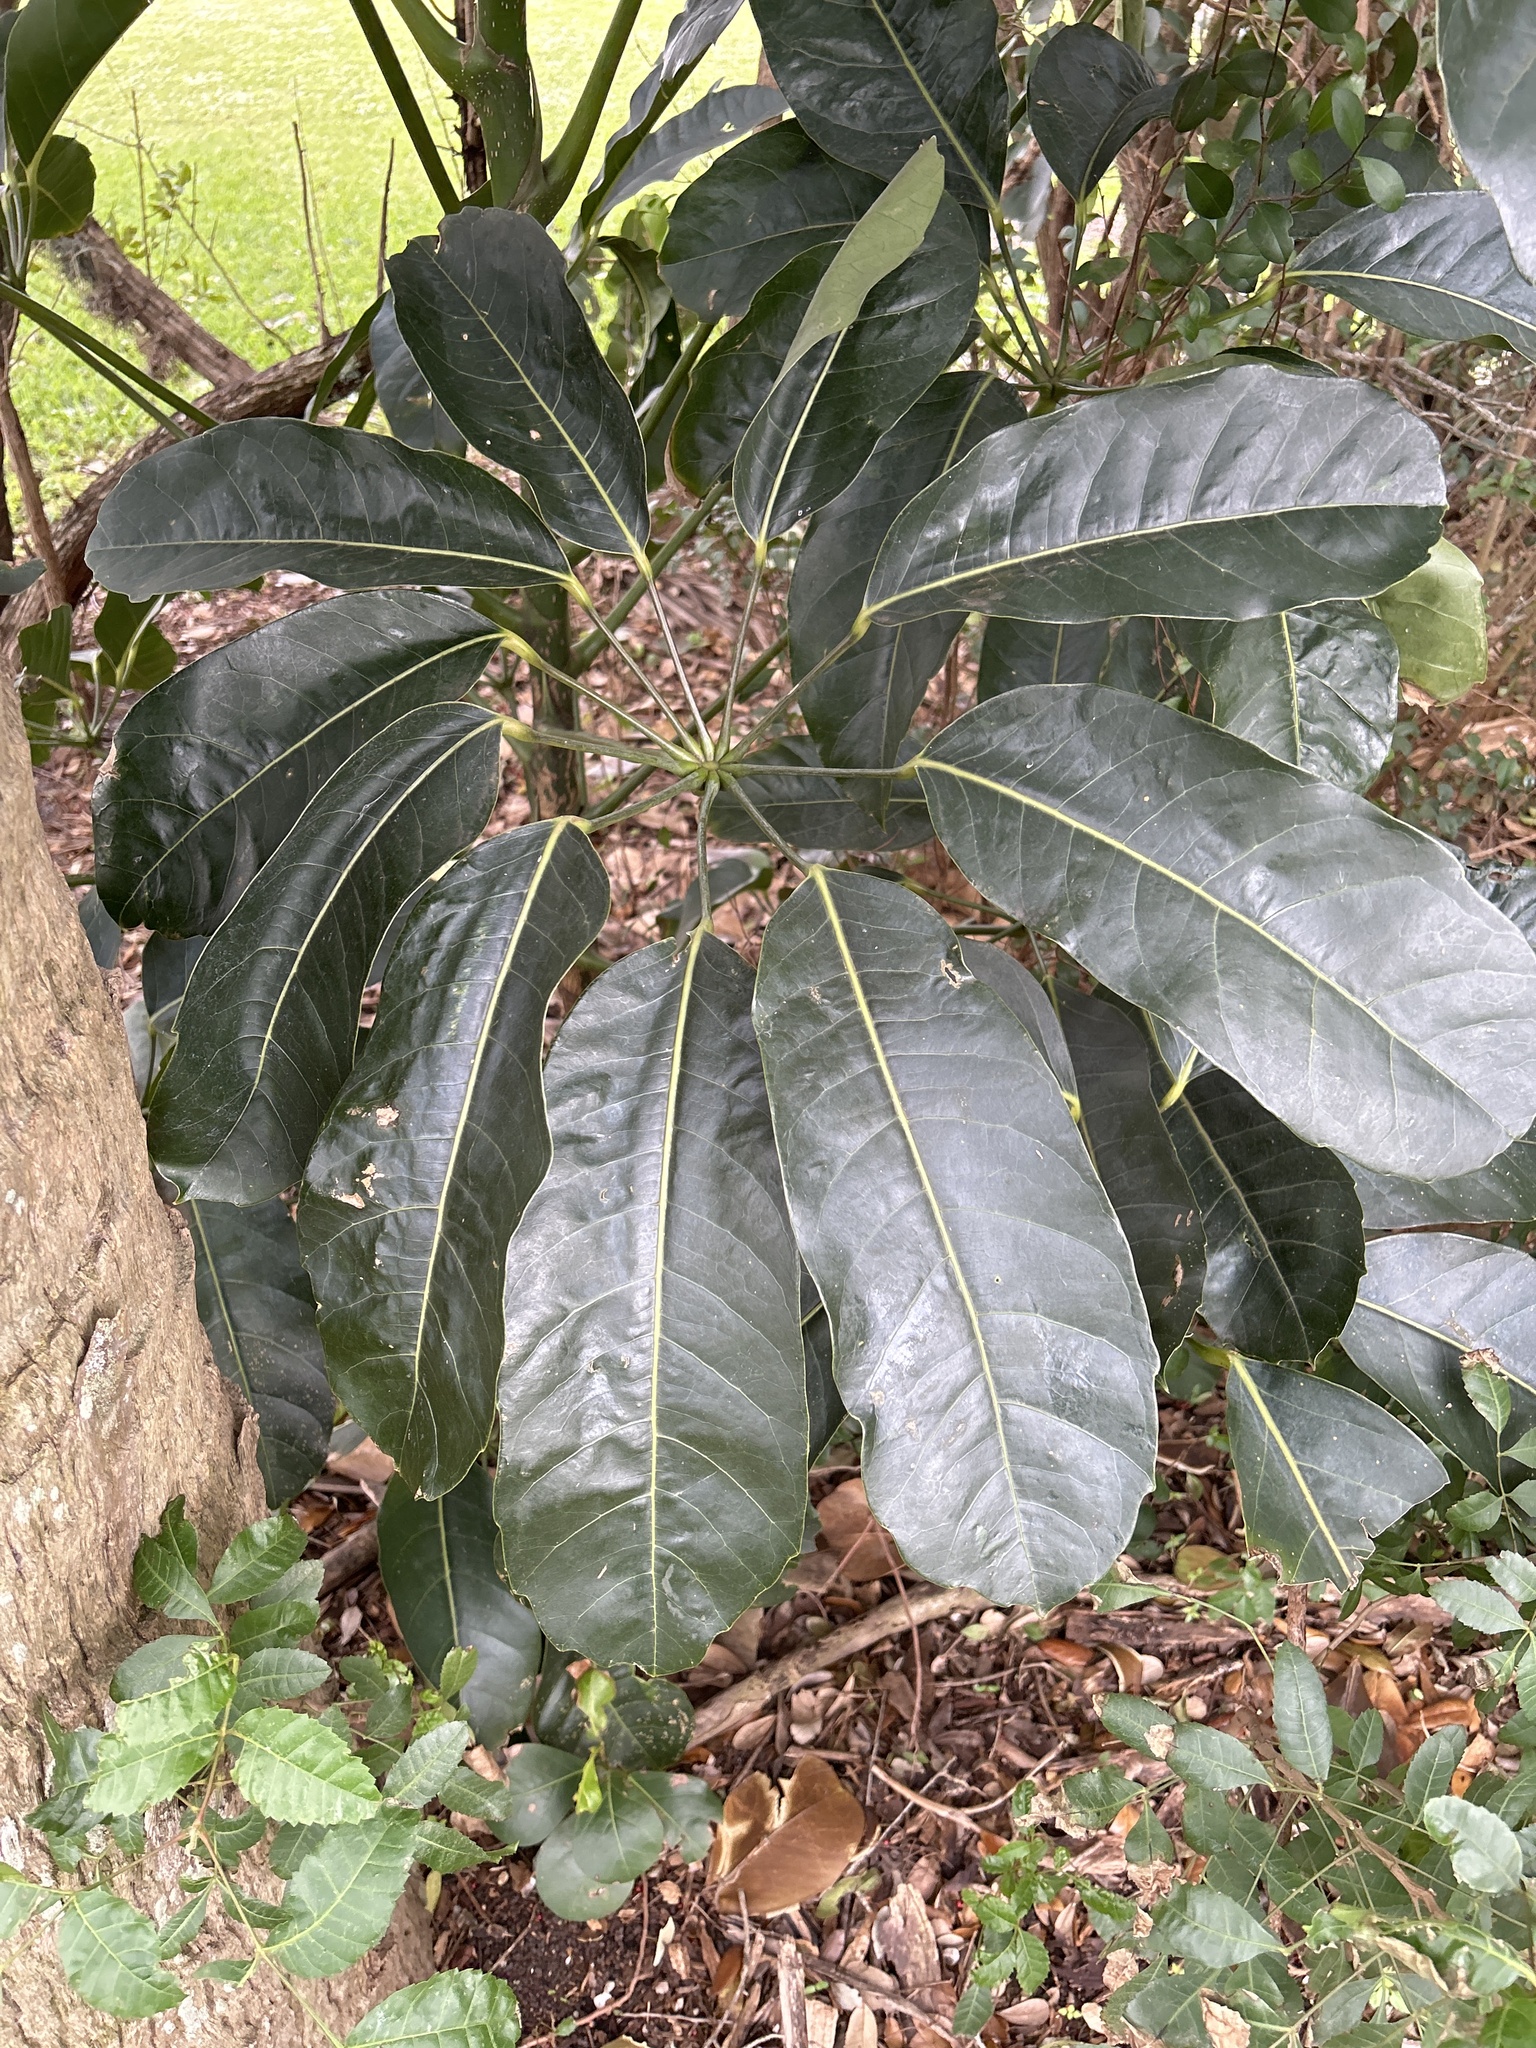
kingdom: Plantae
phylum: Tracheophyta
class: Magnoliopsida
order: Apiales
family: Araliaceae
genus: Heptapleurum
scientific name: Heptapleurum actinophyllum
